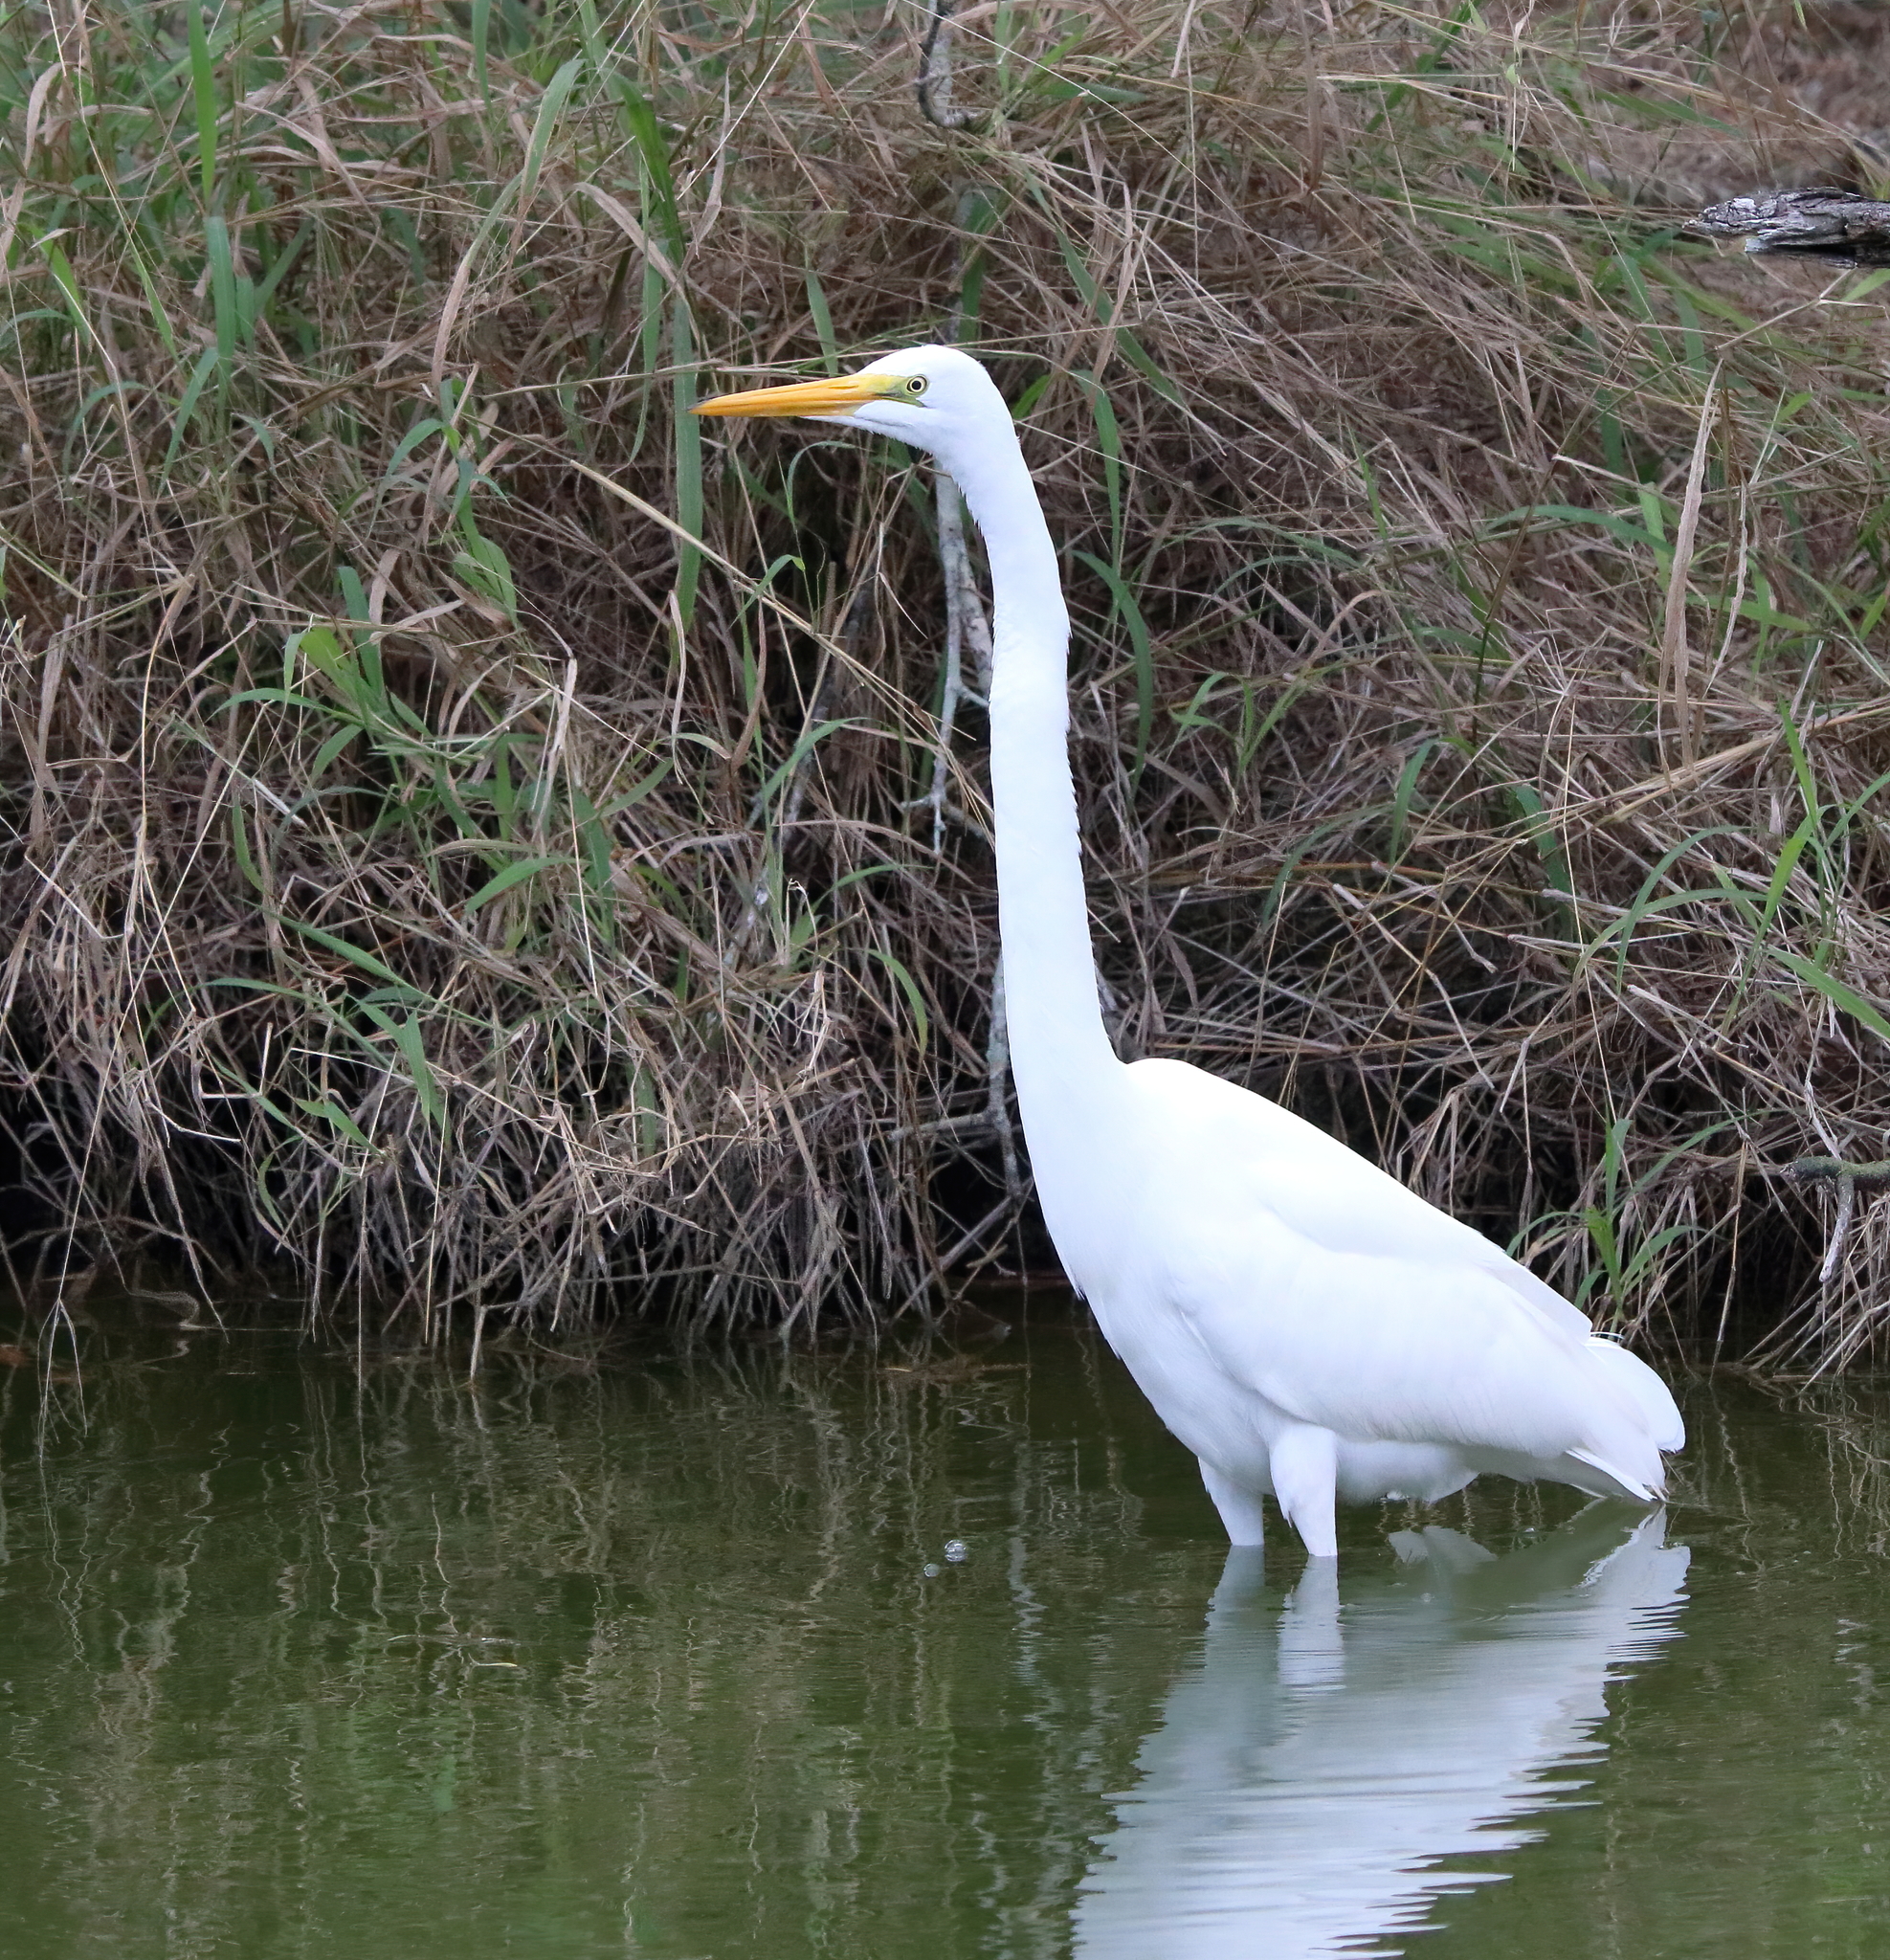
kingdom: Animalia
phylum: Chordata
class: Aves
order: Pelecaniformes
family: Ardeidae
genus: Ardea
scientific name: Ardea alba
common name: Great egret
